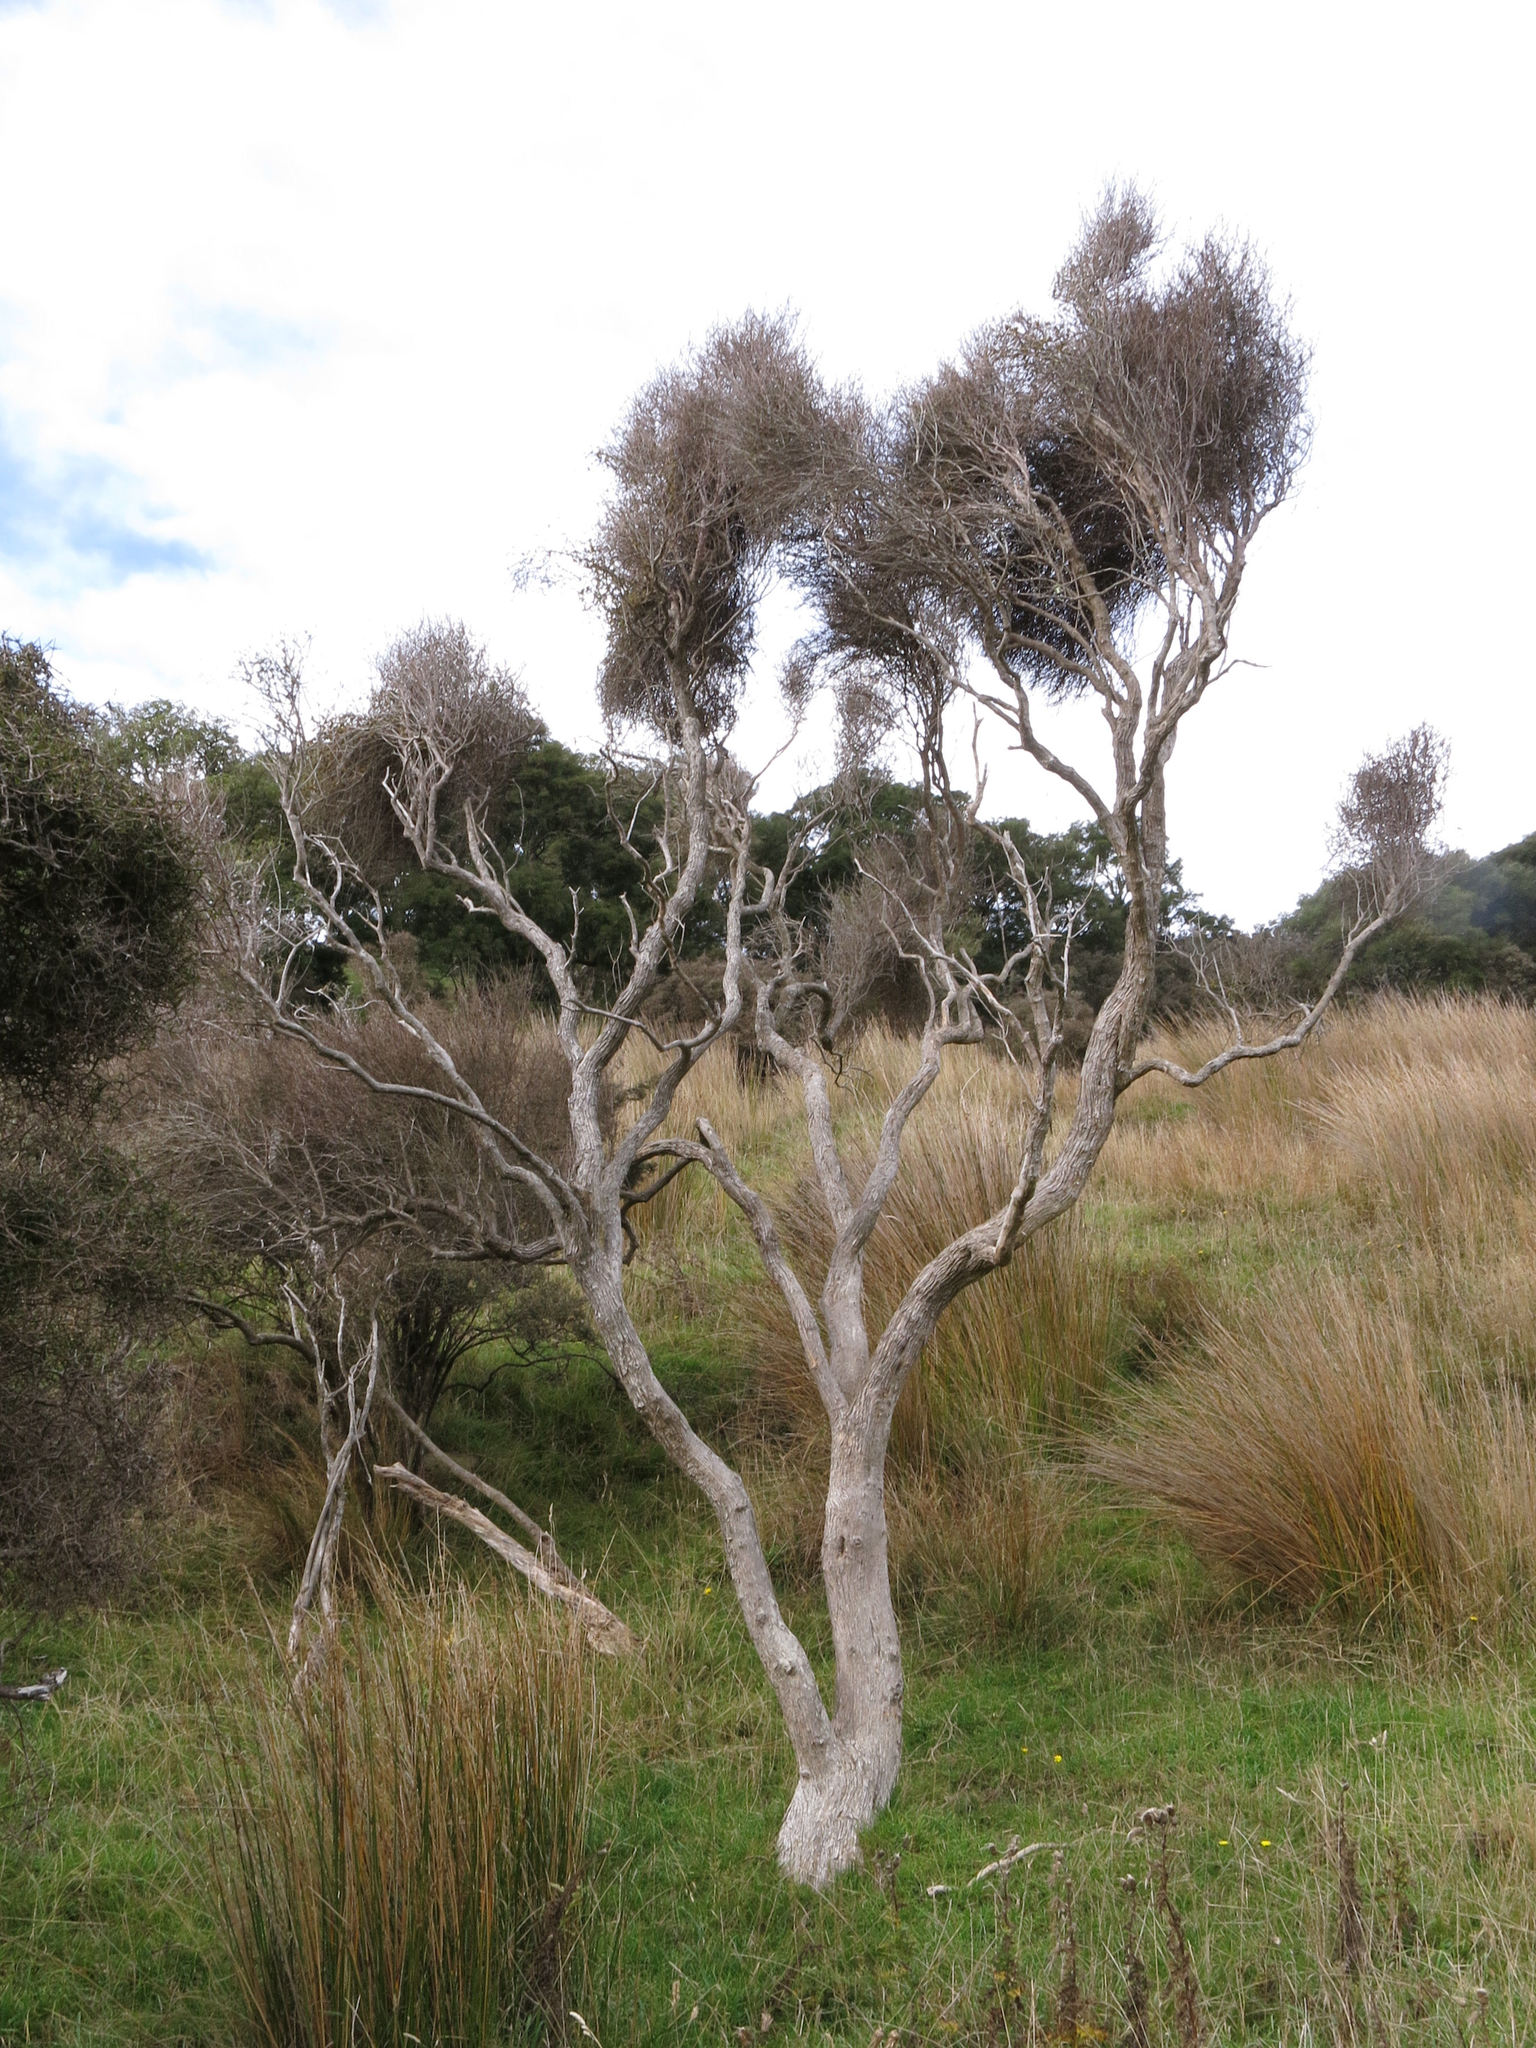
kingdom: Plantae
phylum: Tracheophyta
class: Magnoliopsida
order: Asterales
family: Asteraceae
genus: Olearia
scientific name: Olearia lineata
